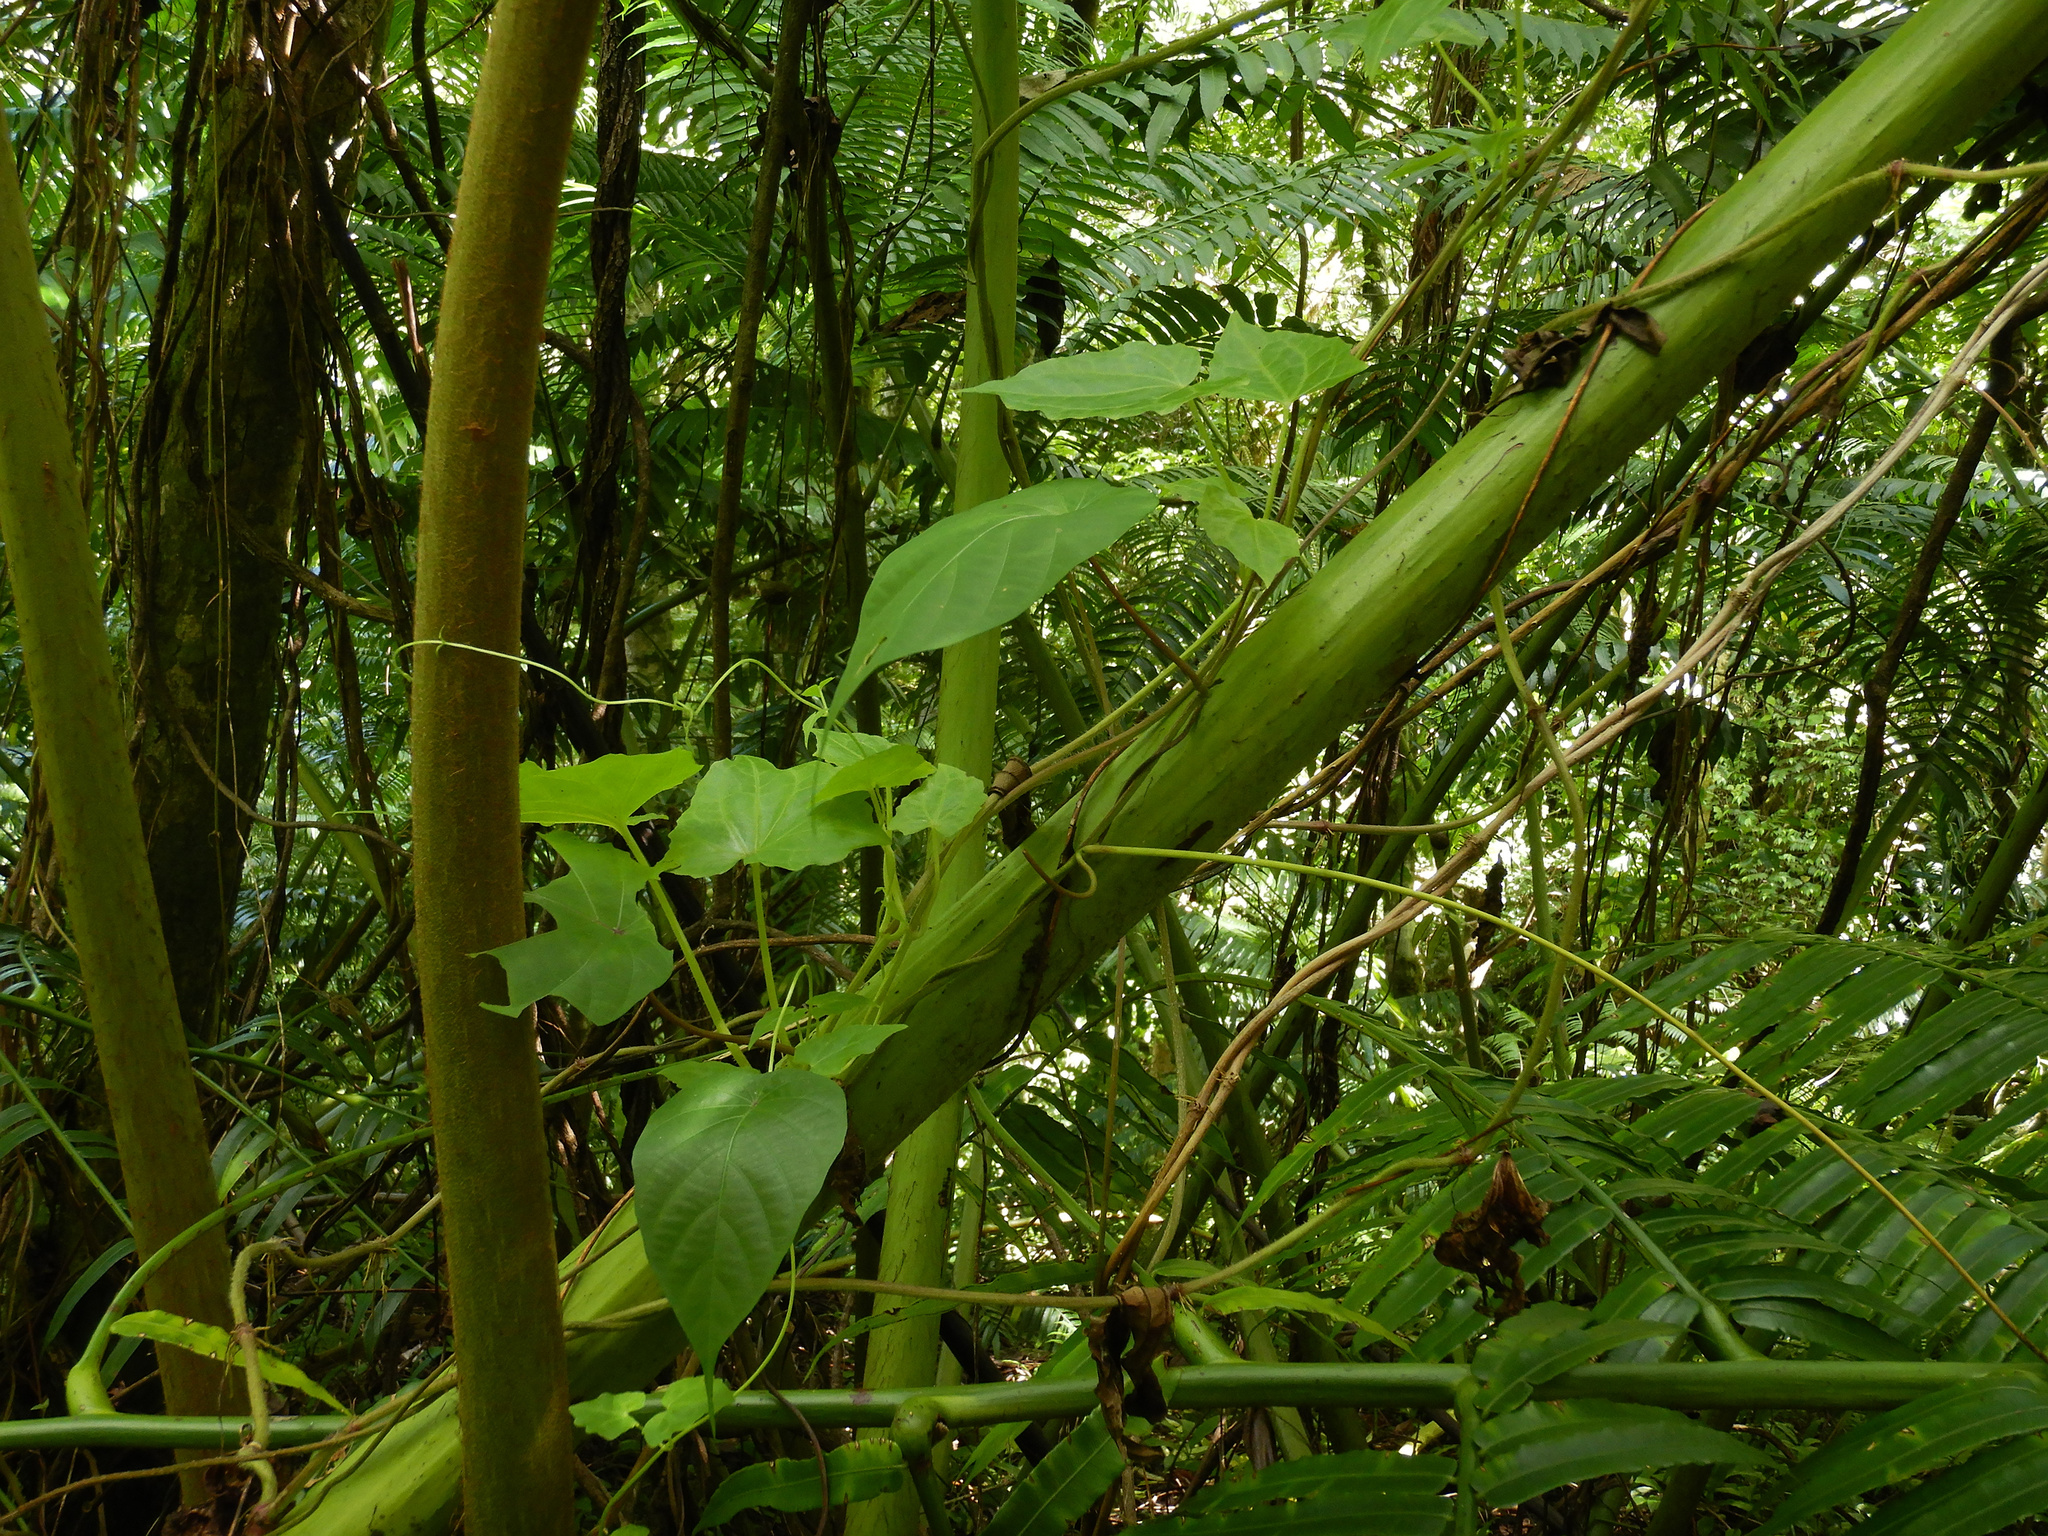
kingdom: Plantae
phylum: Tracheophyta
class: Liliopsida
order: Dioscoreales
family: Dioscoreaceae
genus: Dioscorea
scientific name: Dioscorea bulbifera
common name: Air yam
